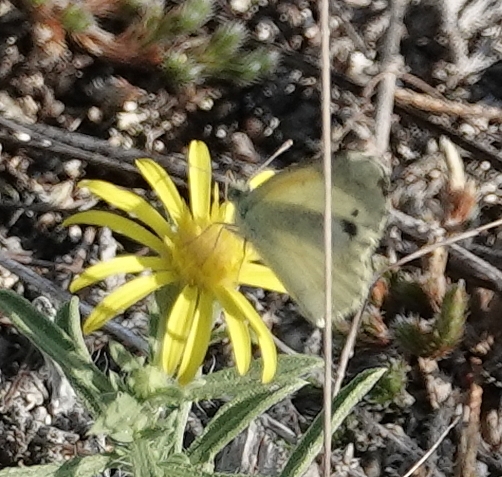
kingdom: Animalia
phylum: Arthropoda
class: Insecta
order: Lepidoptera
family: Pieridae
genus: Nathalis
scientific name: Nathalis iole
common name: Dainty sulphur
